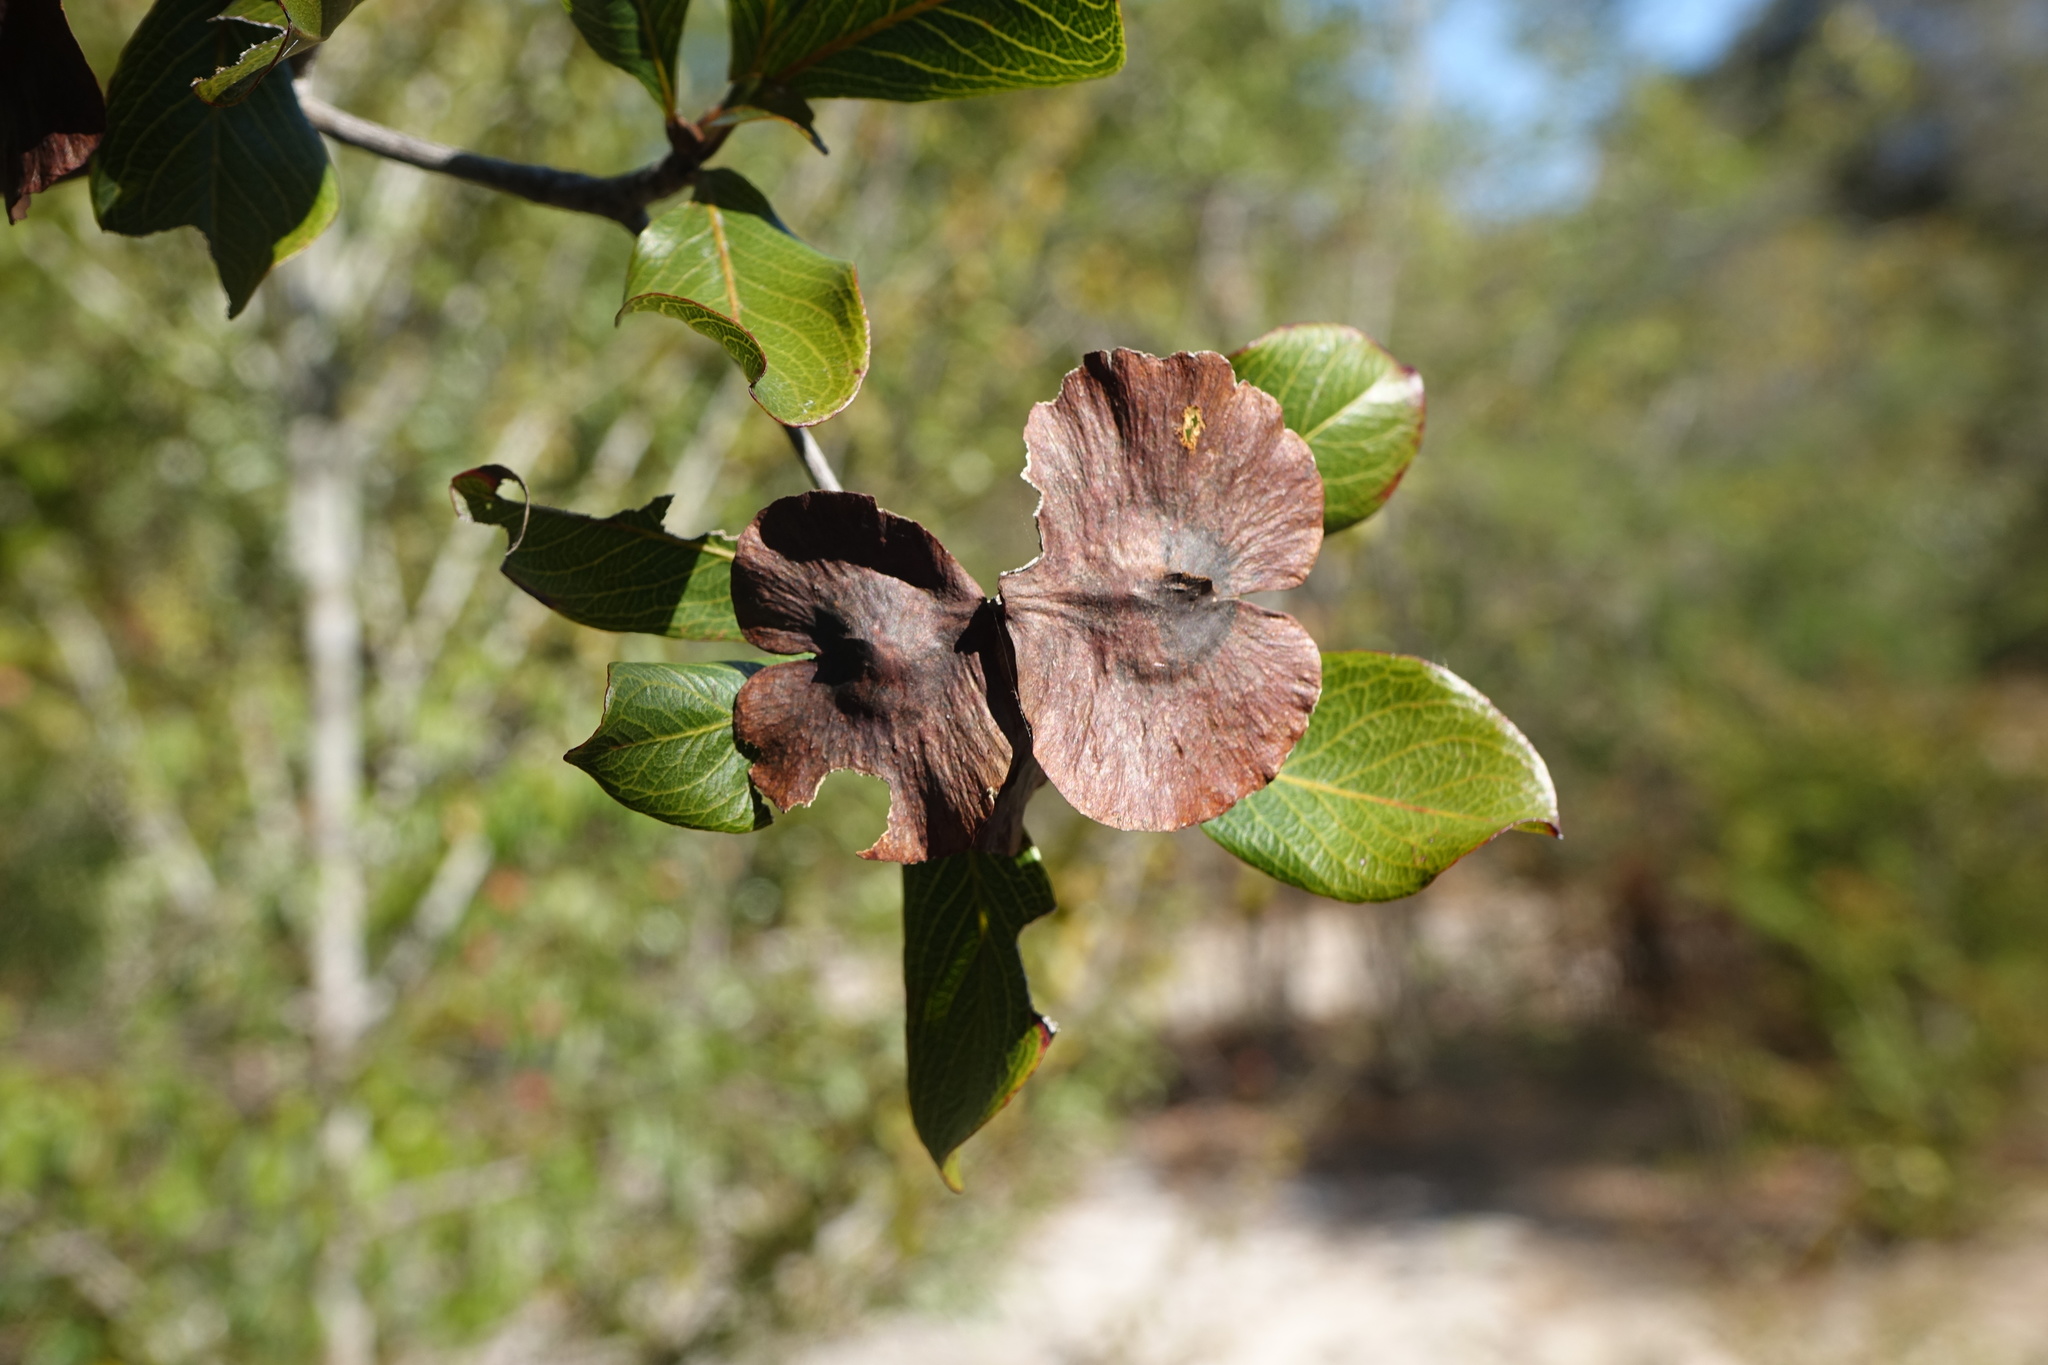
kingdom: Plantae
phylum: Tracheophyta
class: Magnoliopsida
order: Myrtales
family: Combretaceae
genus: Terminalia
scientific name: Terminalia tropophylla
